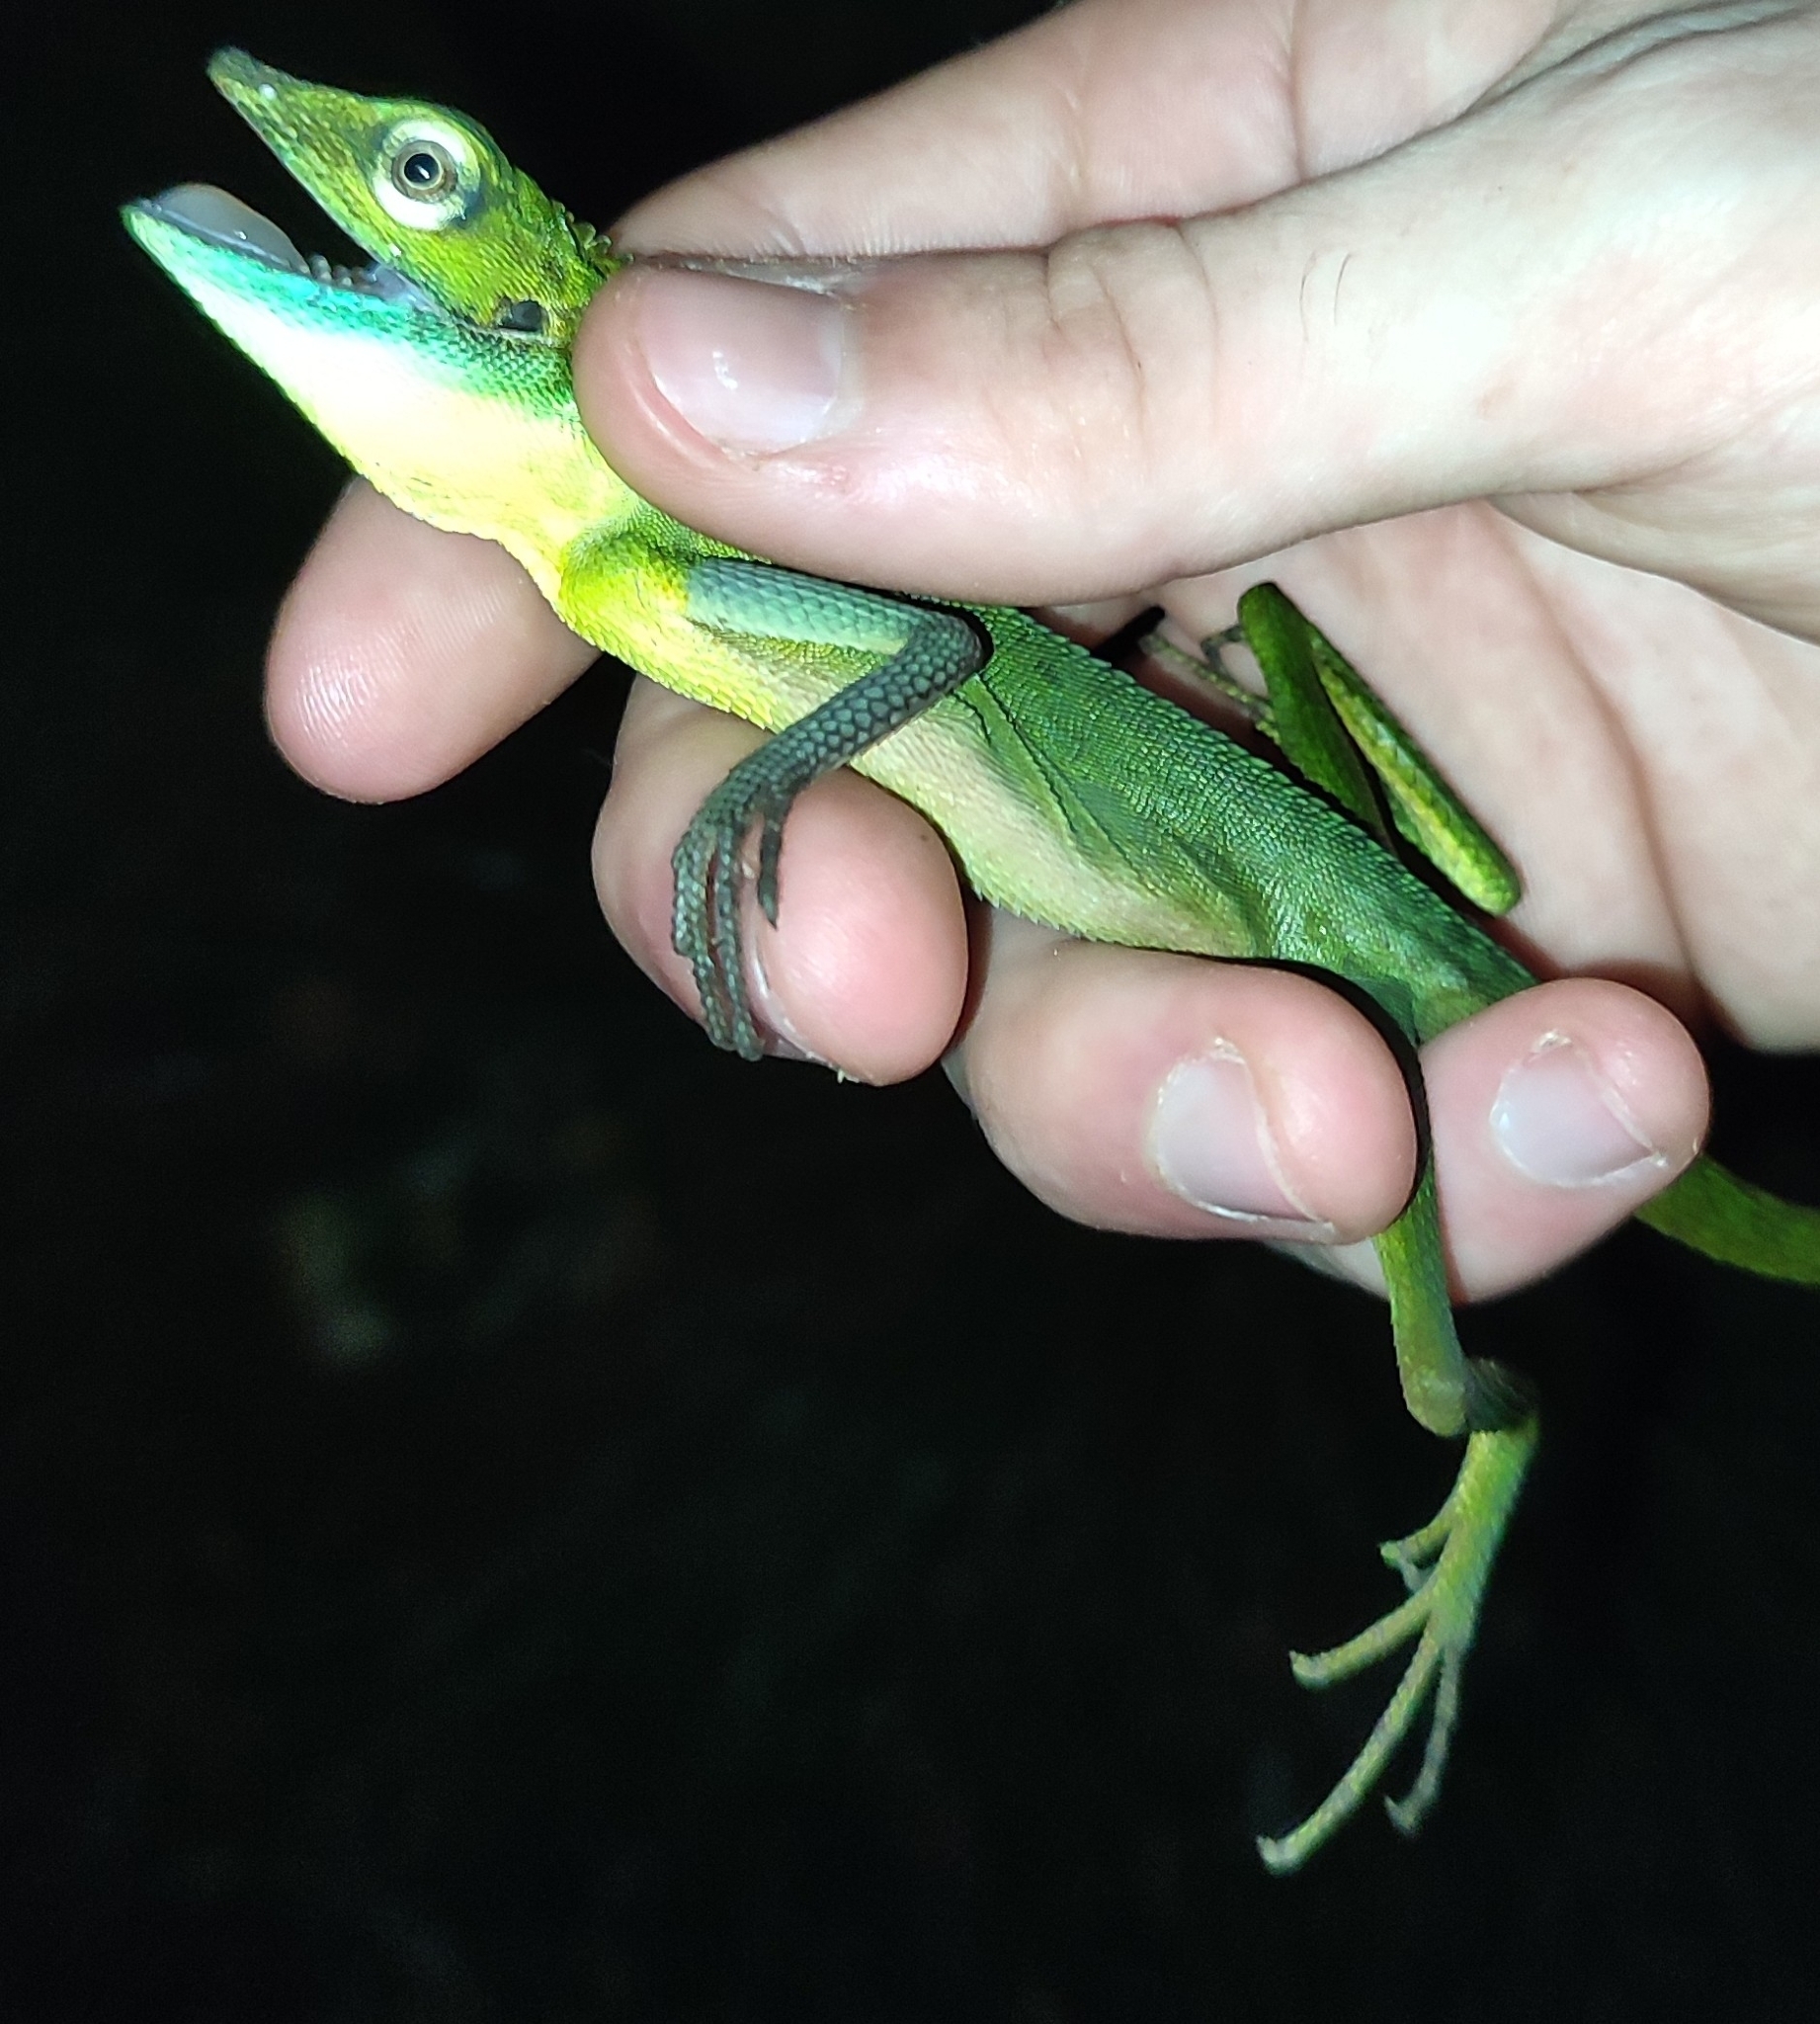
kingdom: Animalia
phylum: Chordata
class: Squamata
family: Agamidae
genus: Bronchocela
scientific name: Bronchocela cristatella
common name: Green crested lizard
